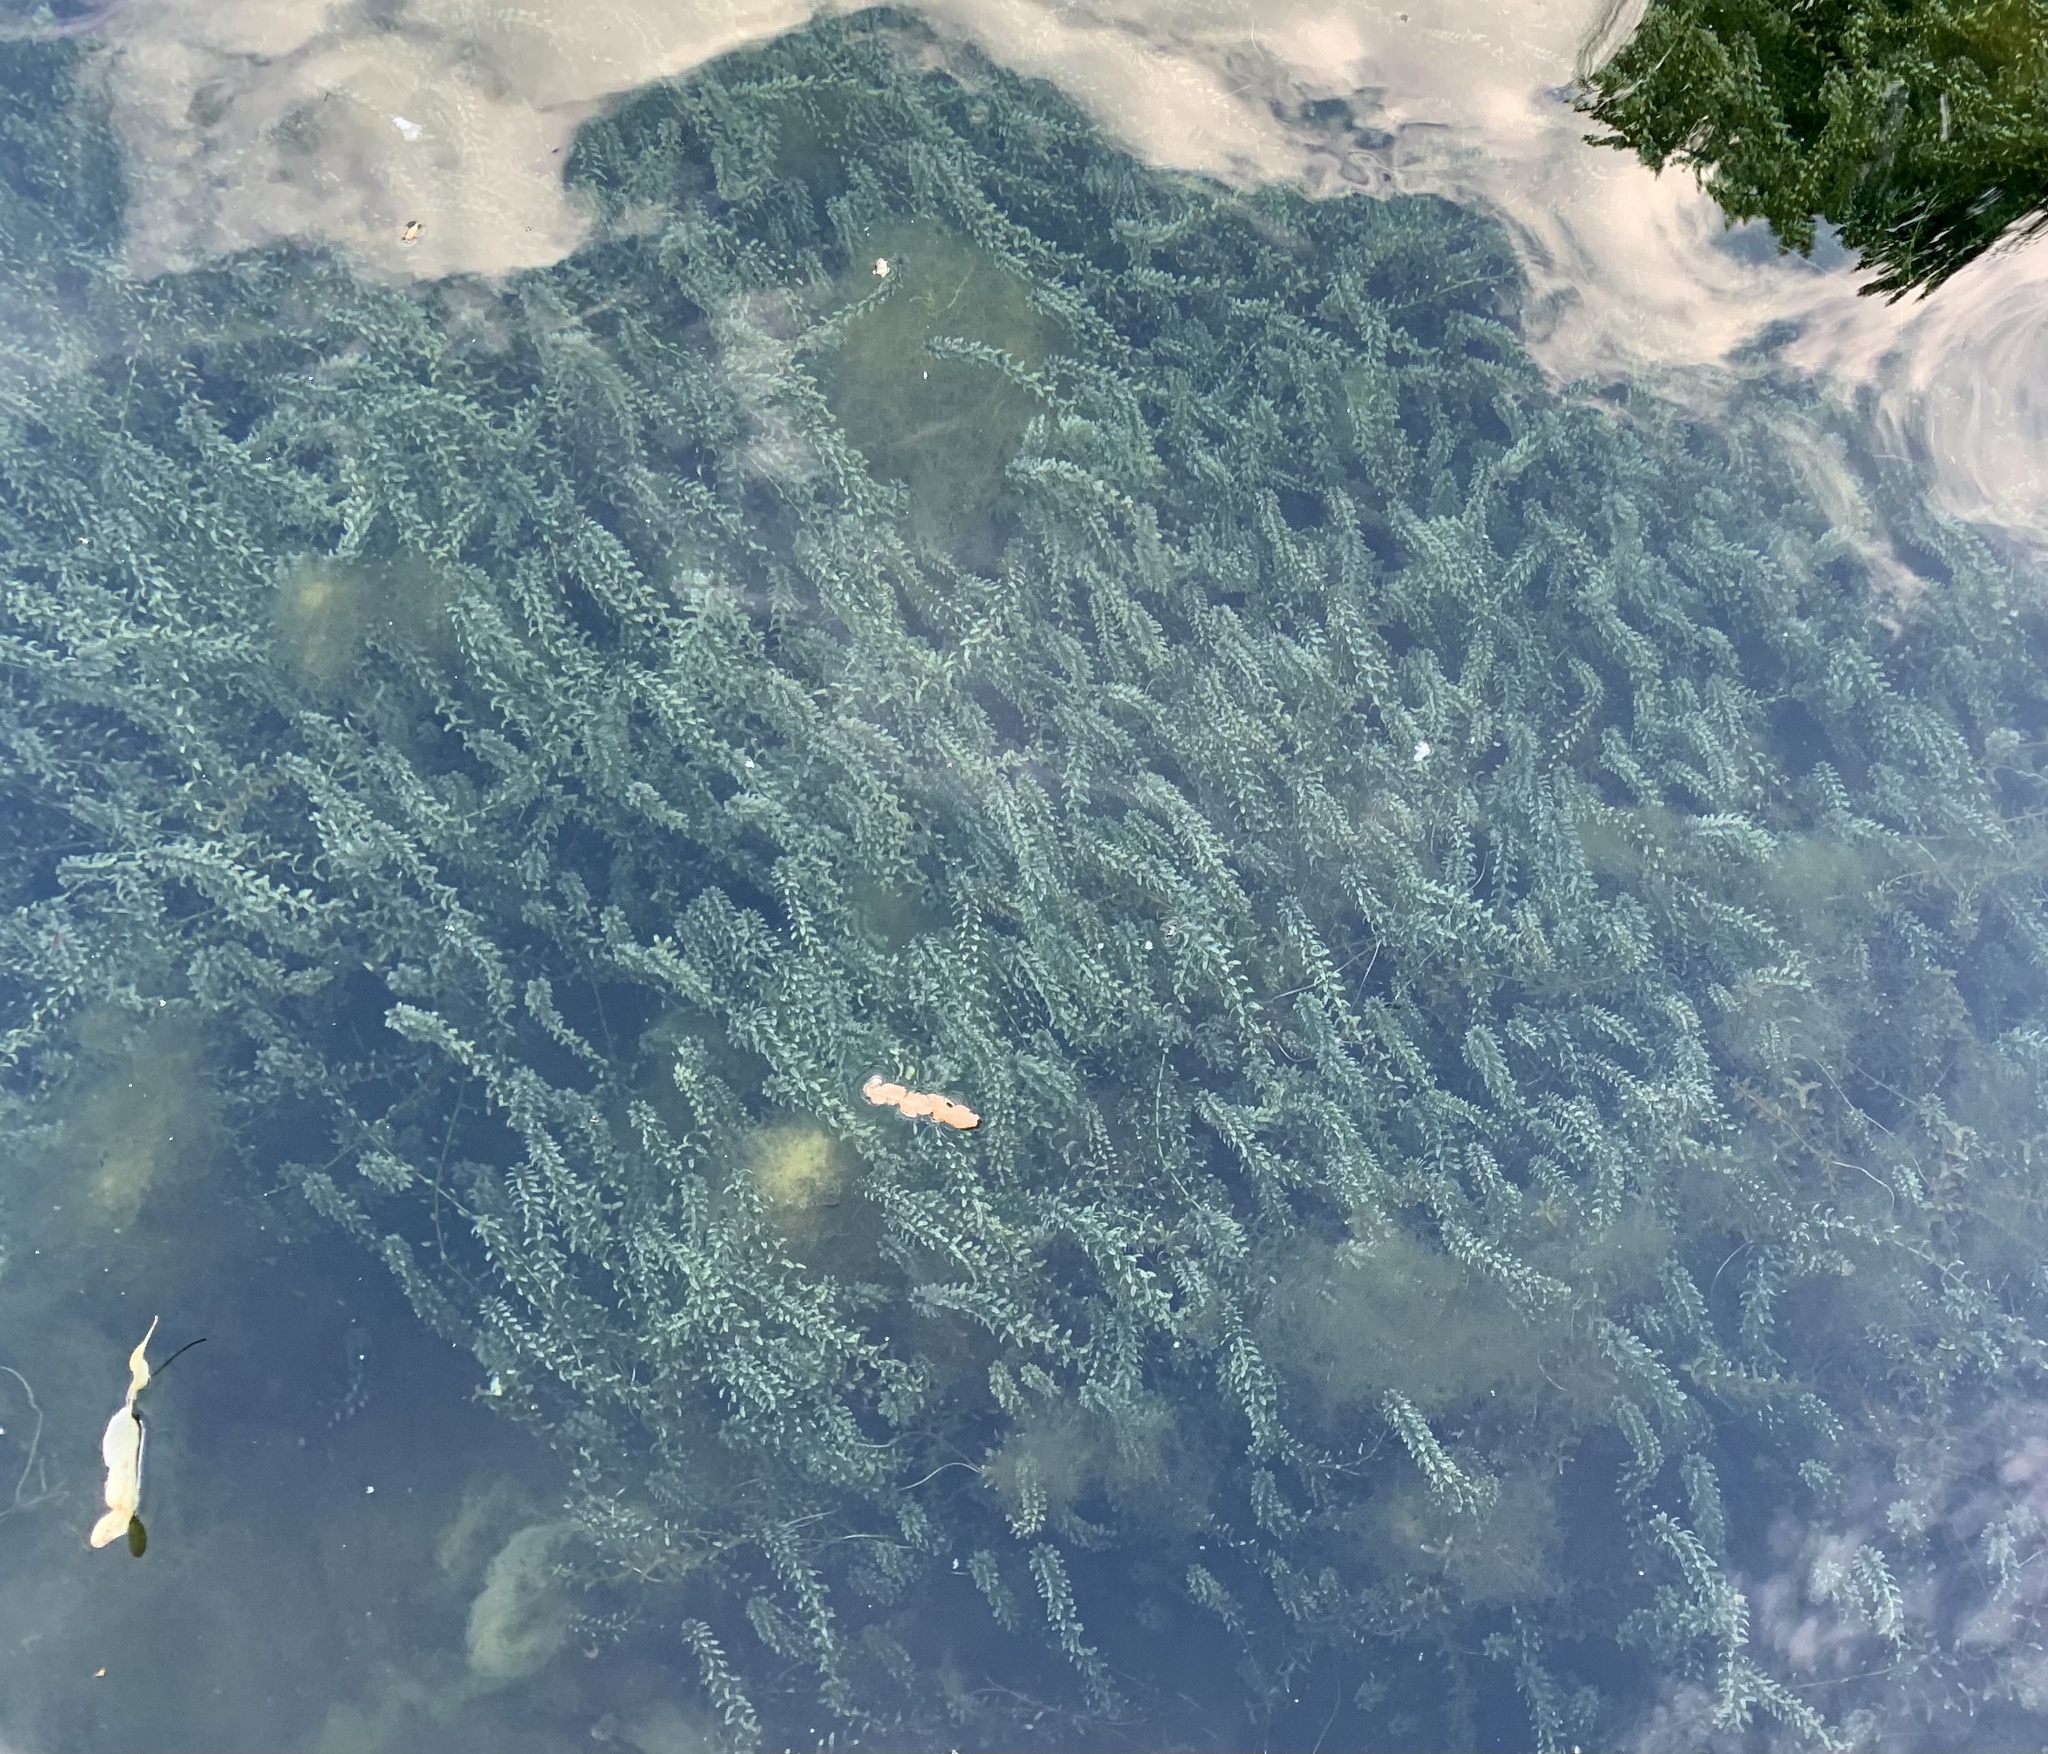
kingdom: Plantae
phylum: Tracheophyta
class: Liliopsida
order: Alismatales
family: Hydrocharitaceae
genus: Elodea
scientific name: Elodea canadensis
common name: Canadian waterweed
